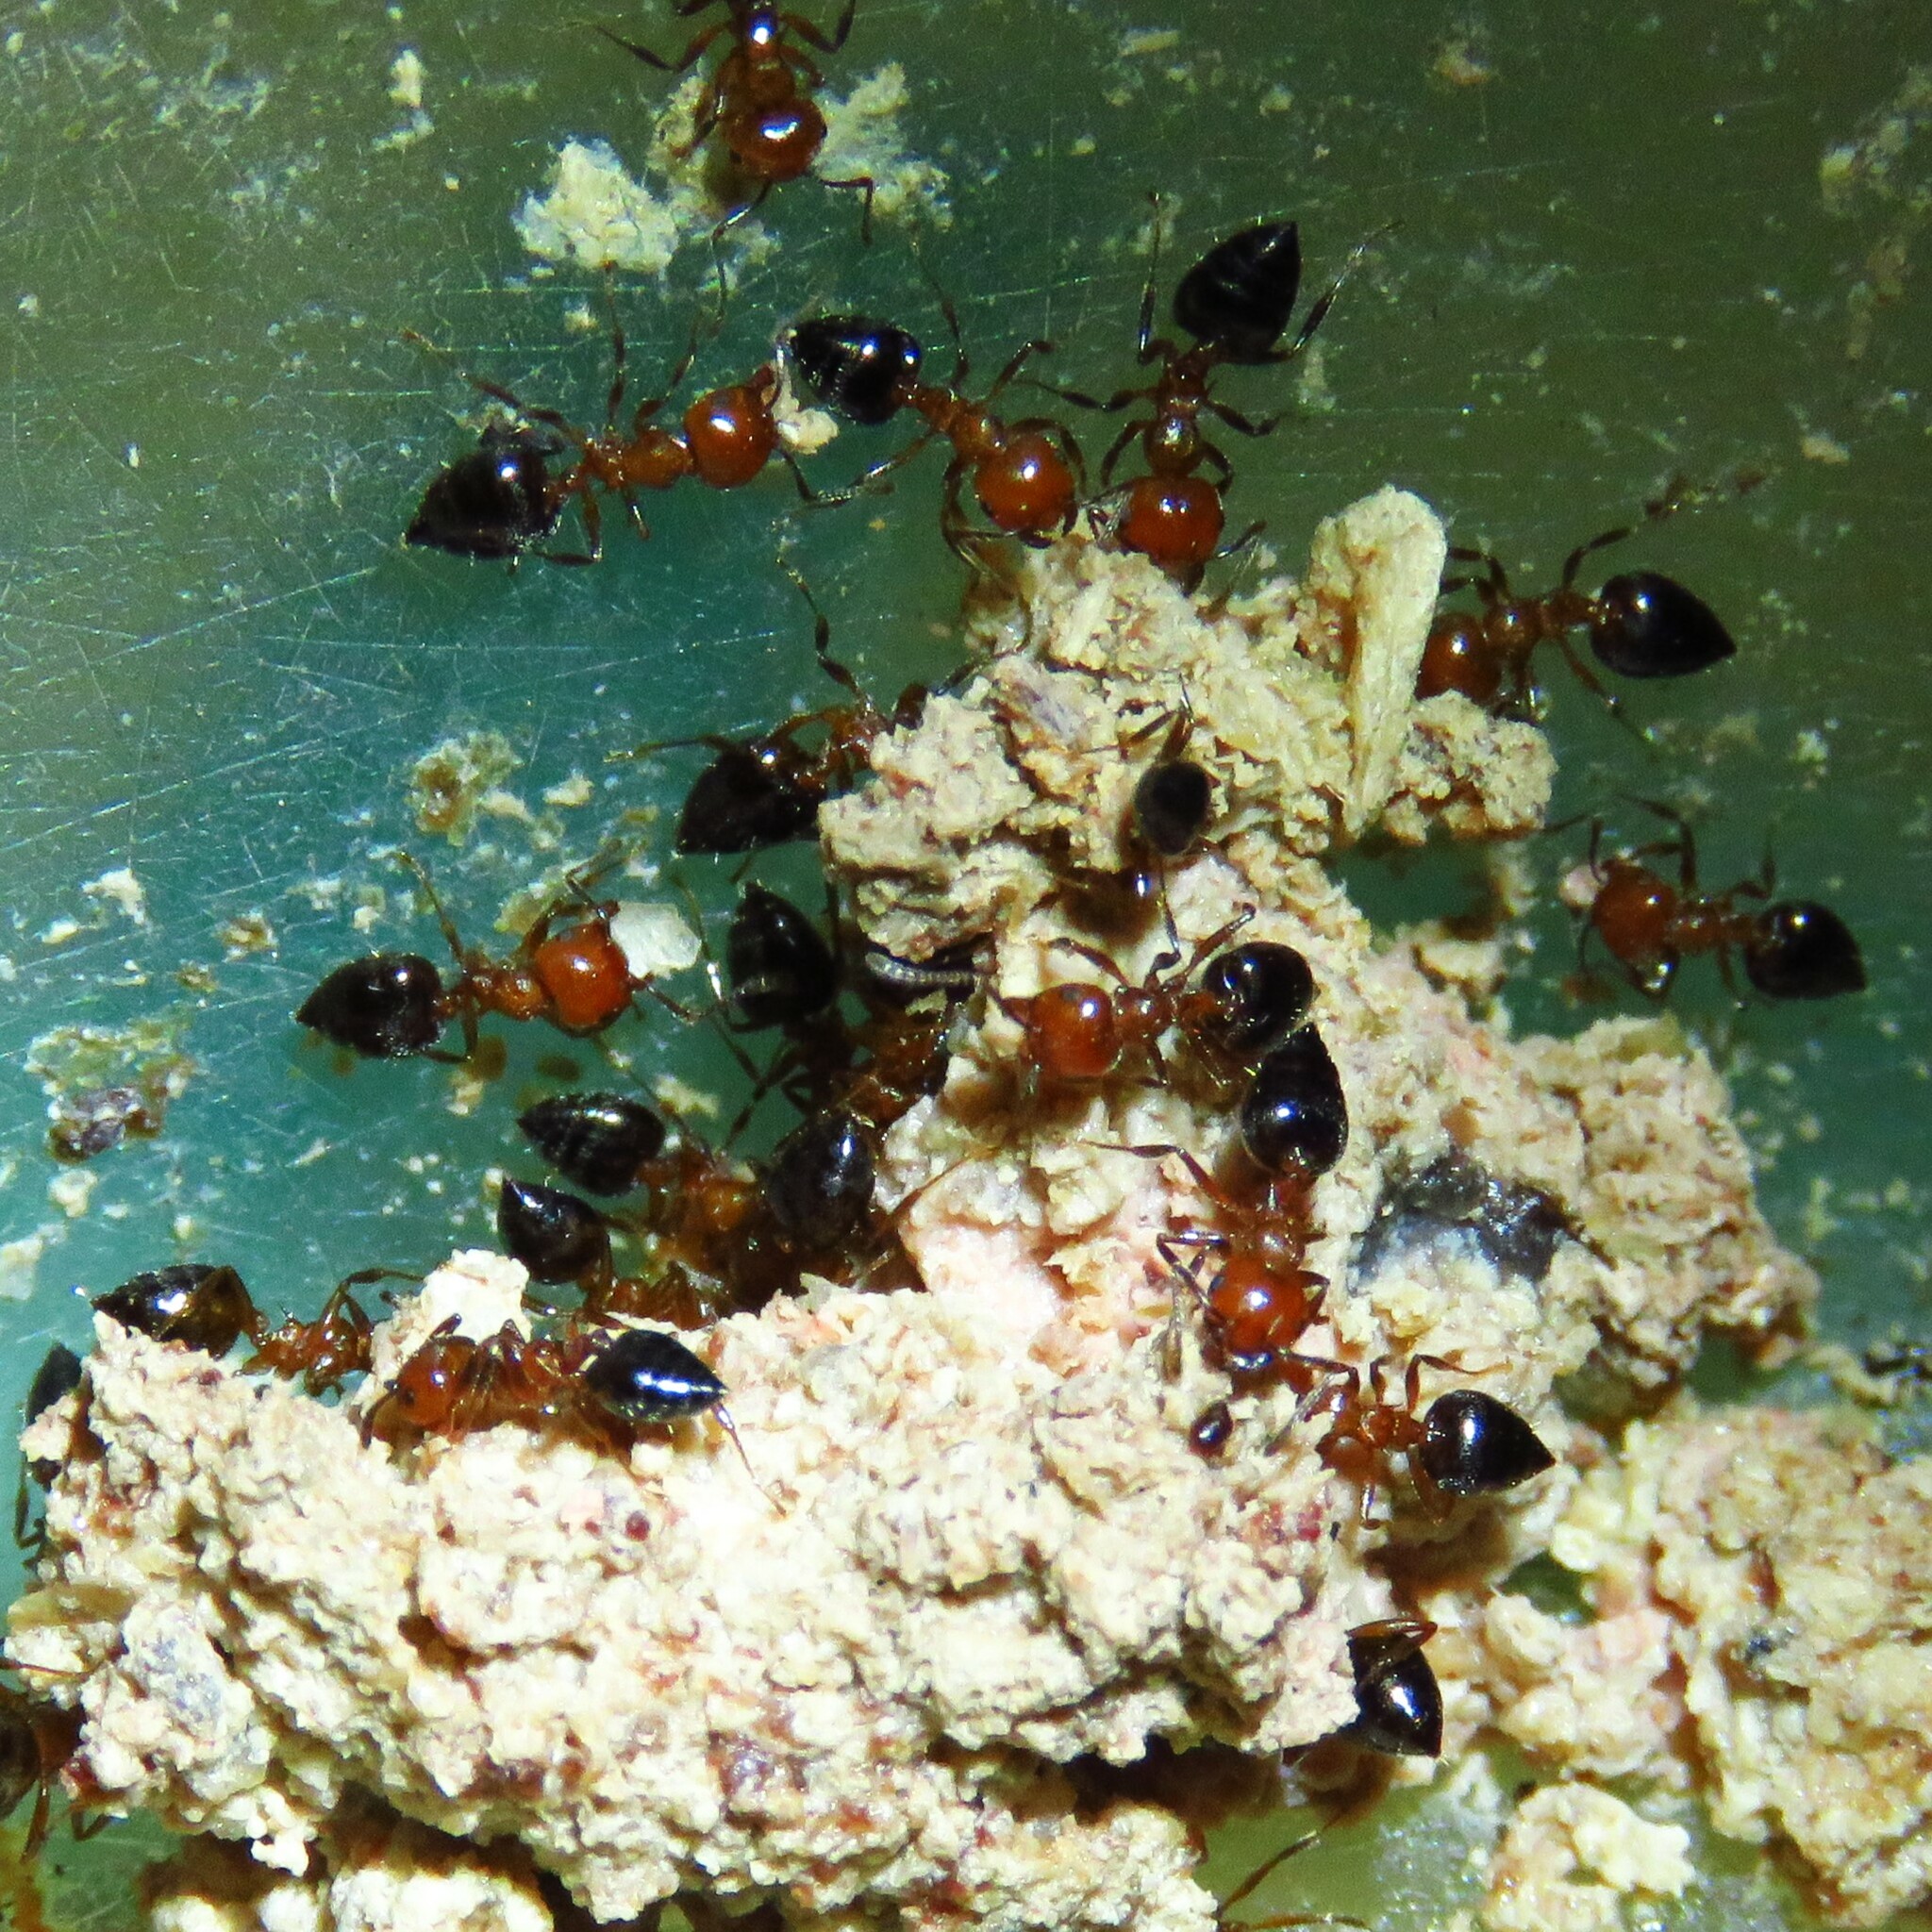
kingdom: Animalia
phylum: Arthropoda
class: Insecta
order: Hymenoptera
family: Formicidae
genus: Crematogaster
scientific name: Crematogaster laeviuscula
